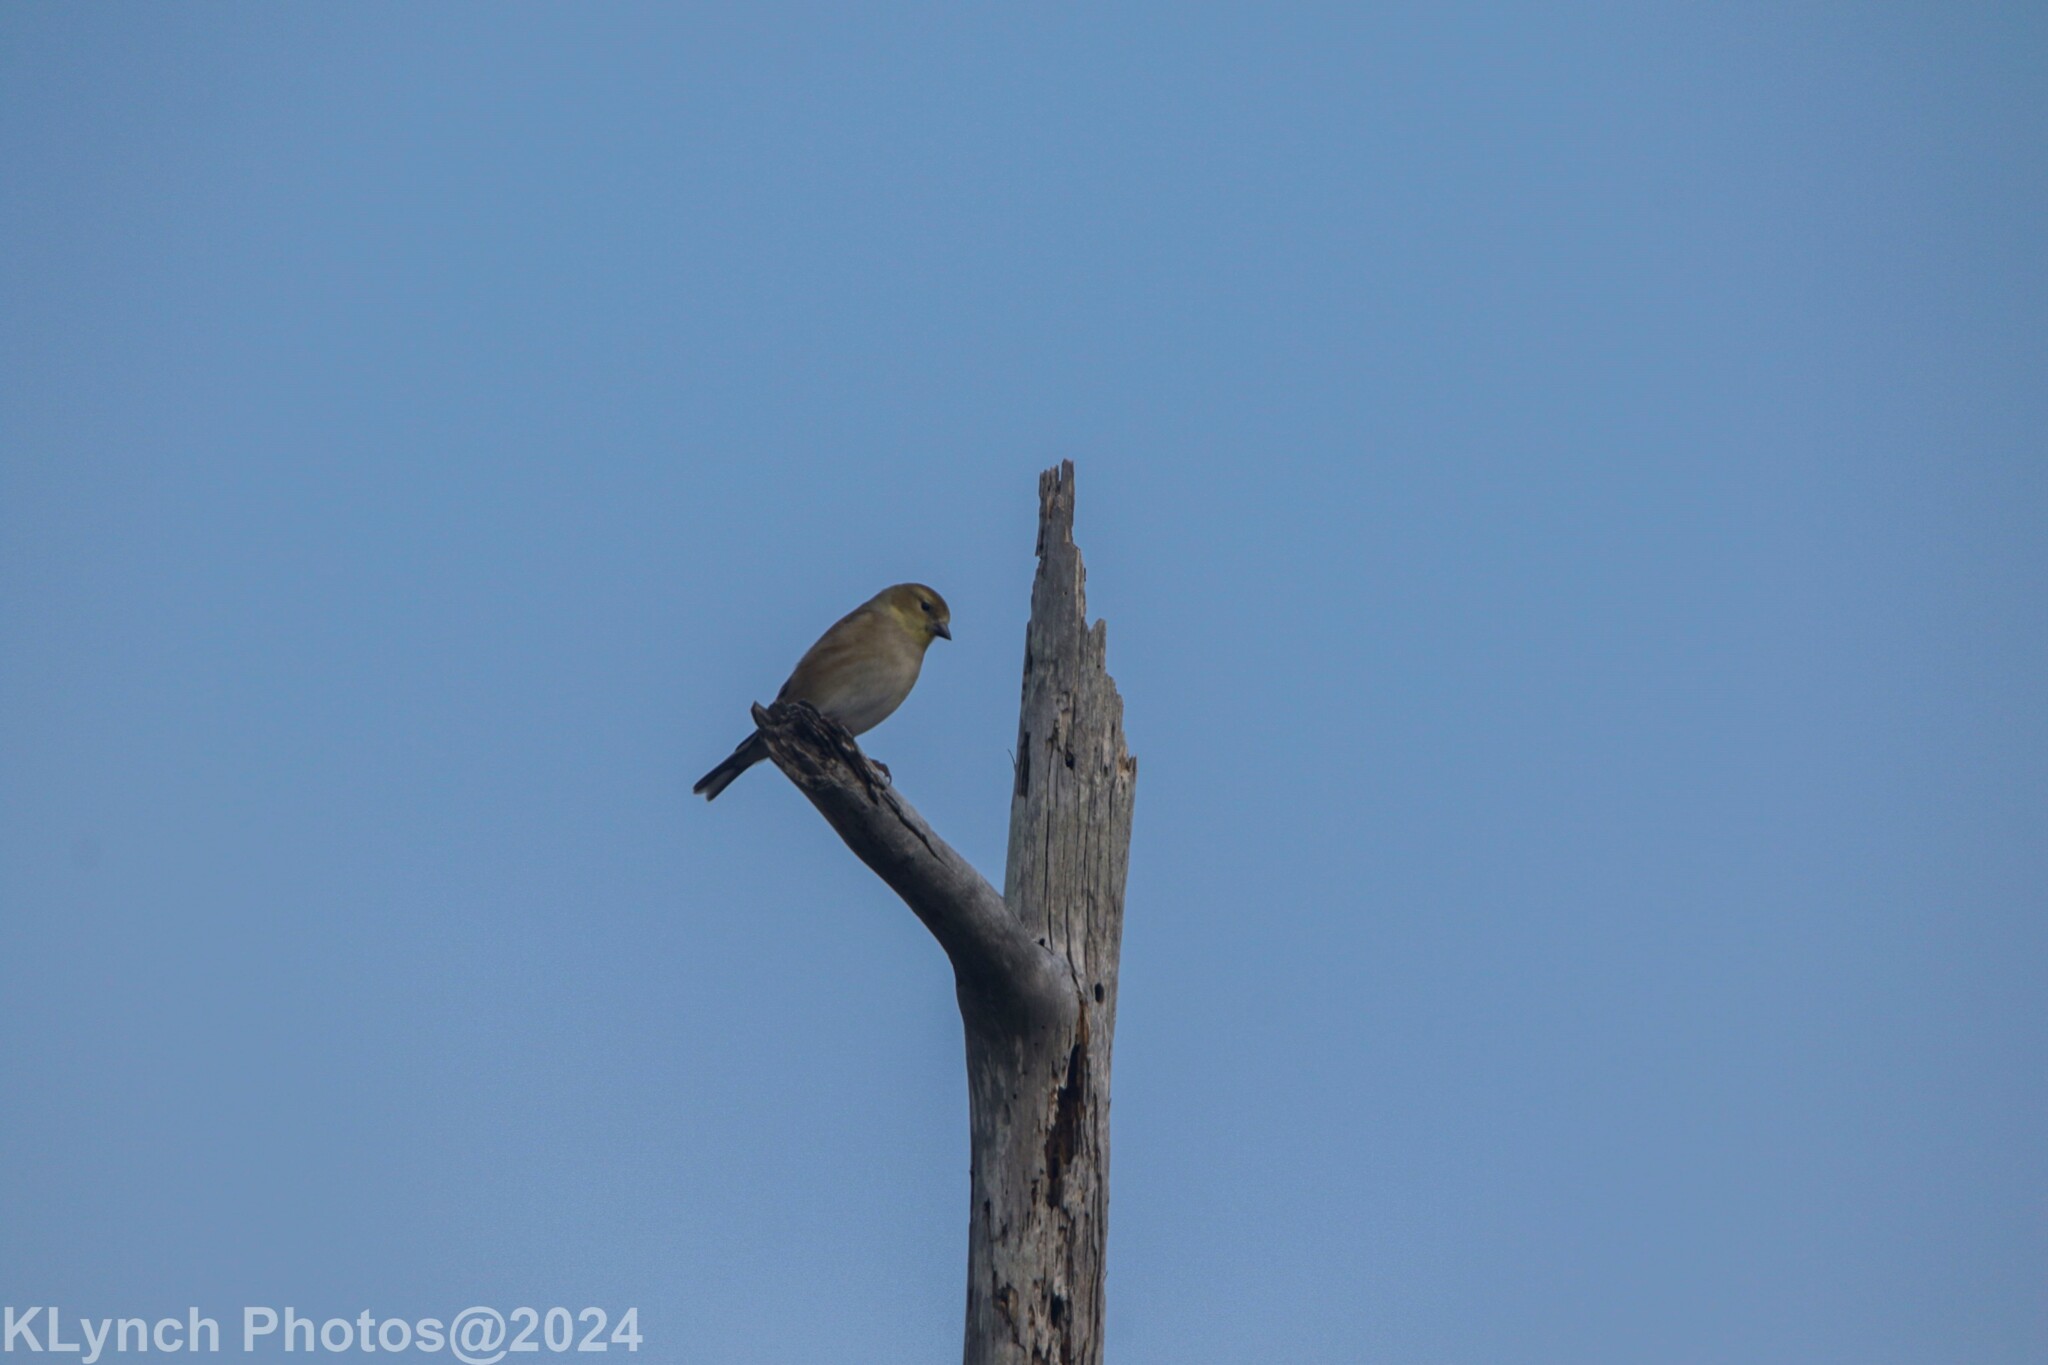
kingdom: Animalia
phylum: Chordata
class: Aves
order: Passeriformes
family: Fringillidae
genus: Spinus
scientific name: Spinus tristis
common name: American goldfinch
